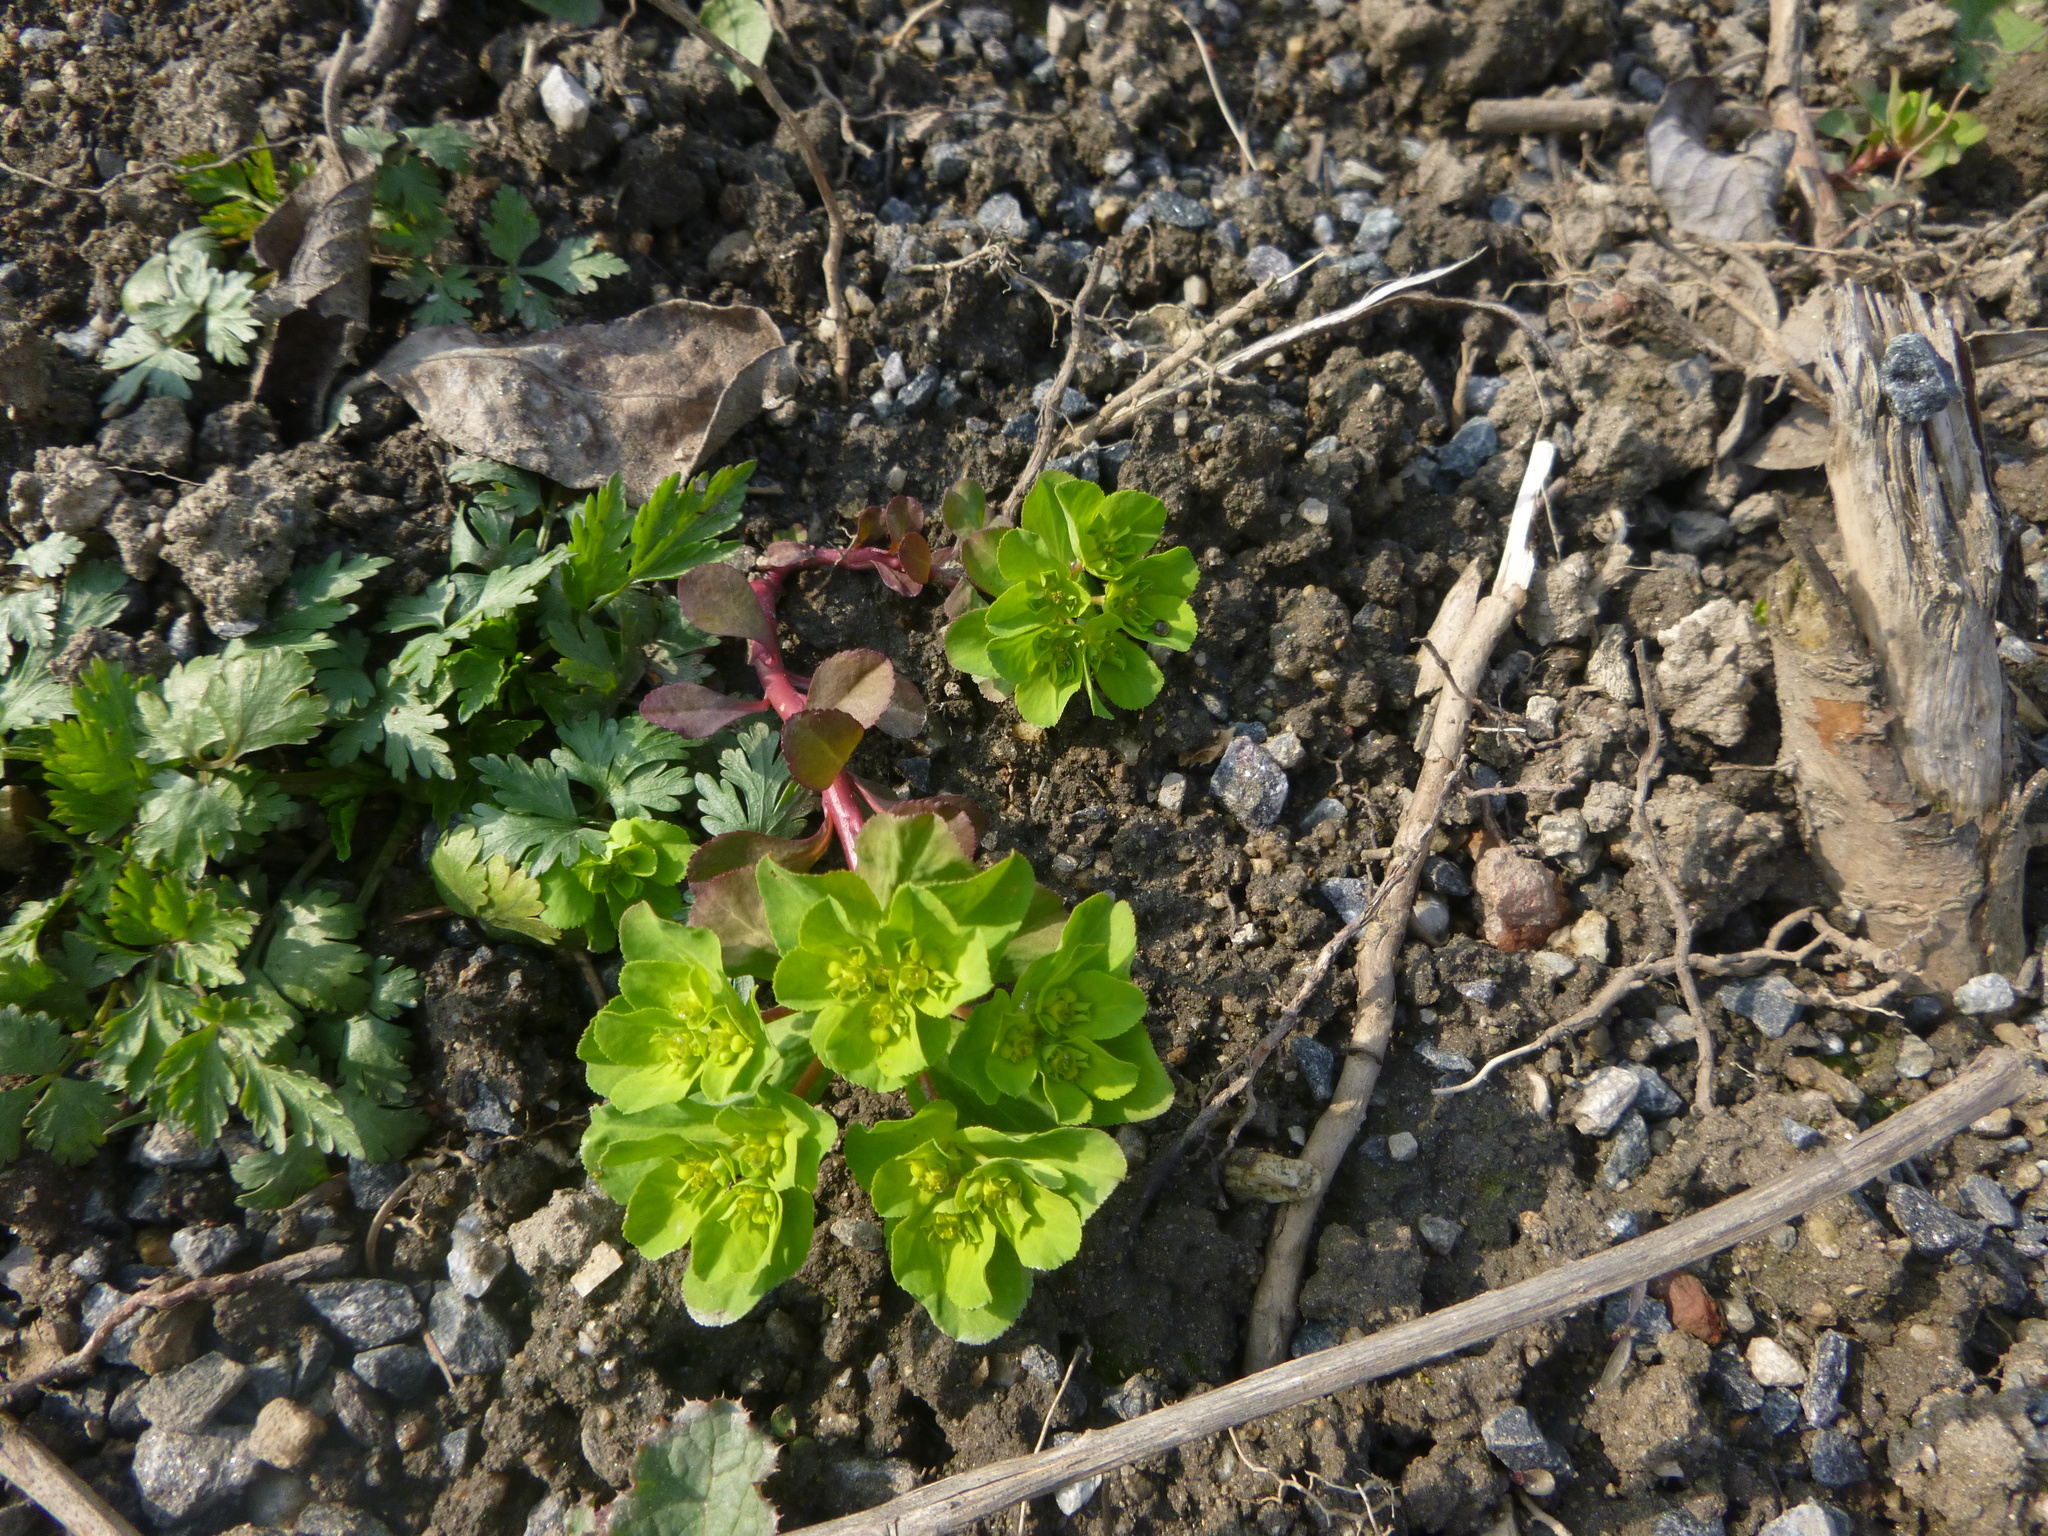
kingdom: Plantae
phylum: Tracheophyta
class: Magnoliopsida
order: Malpighiales
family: Euphorbiaceae
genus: Euphorbia
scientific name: Euphorbia helioscopia
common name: Sun spurge
